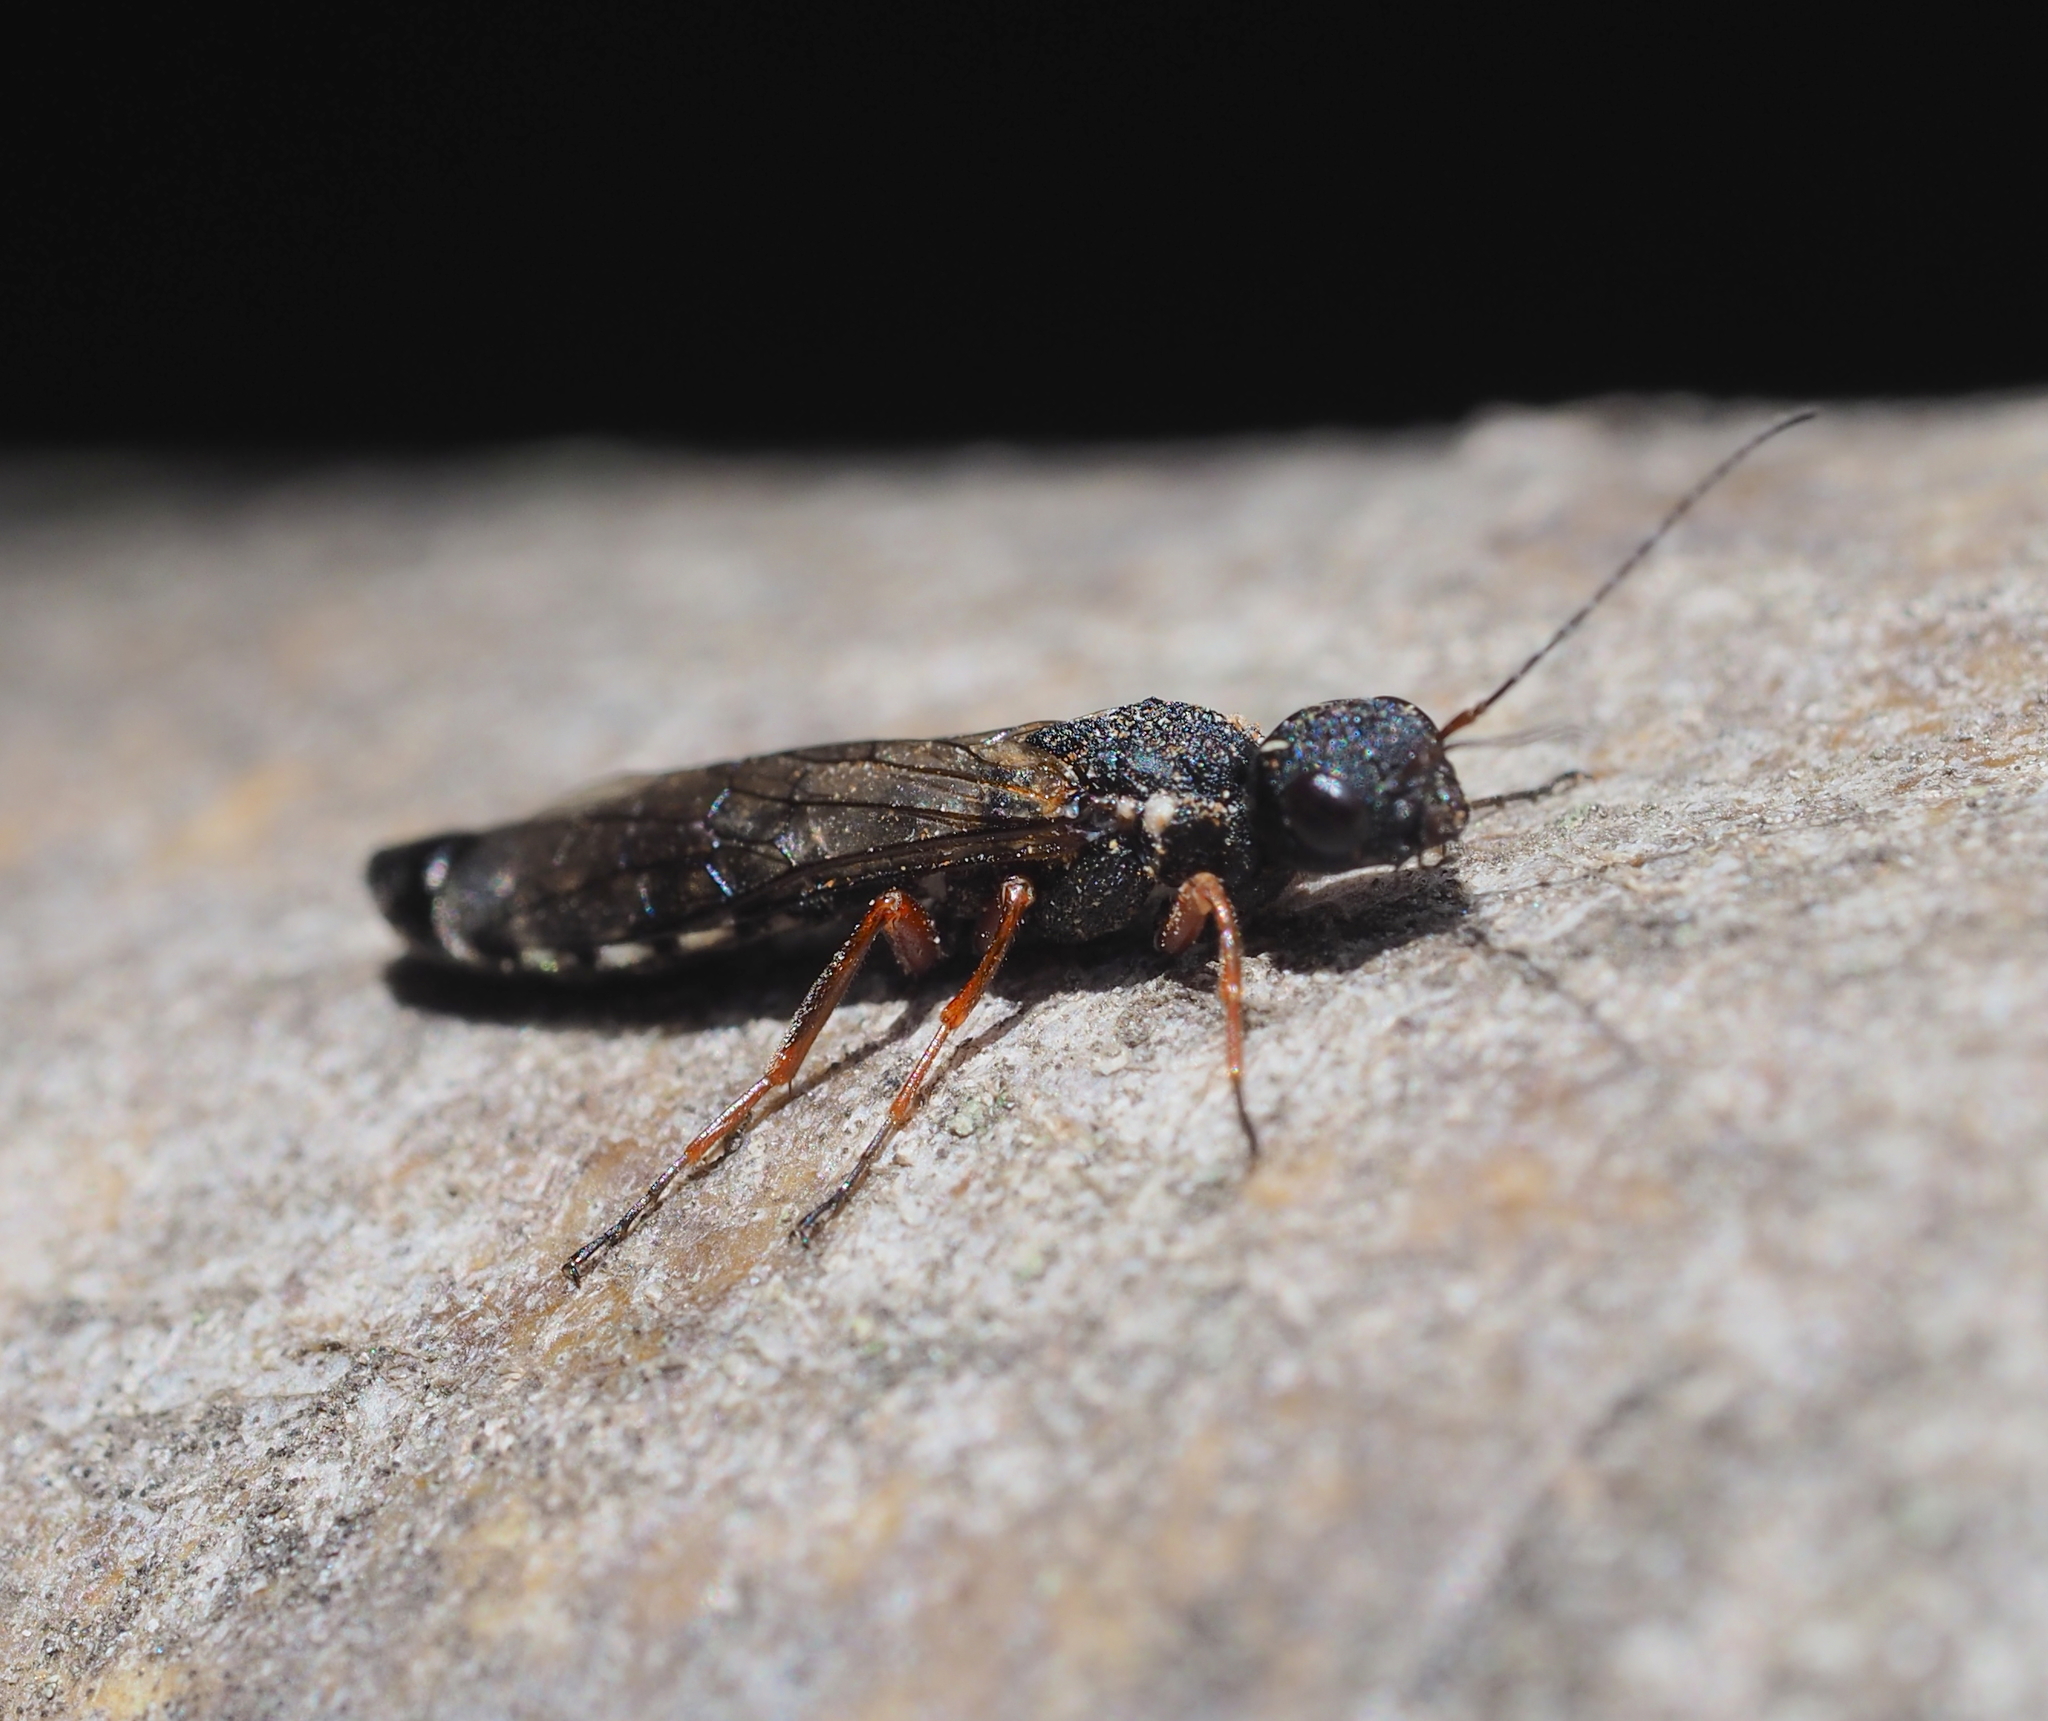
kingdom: Animalia
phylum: Arthropoda
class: Insecta
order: Hymenoptera
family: Xiphydriidae
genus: Xiphydria
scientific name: Xiphydria camelus
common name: Alder wood-wasp
